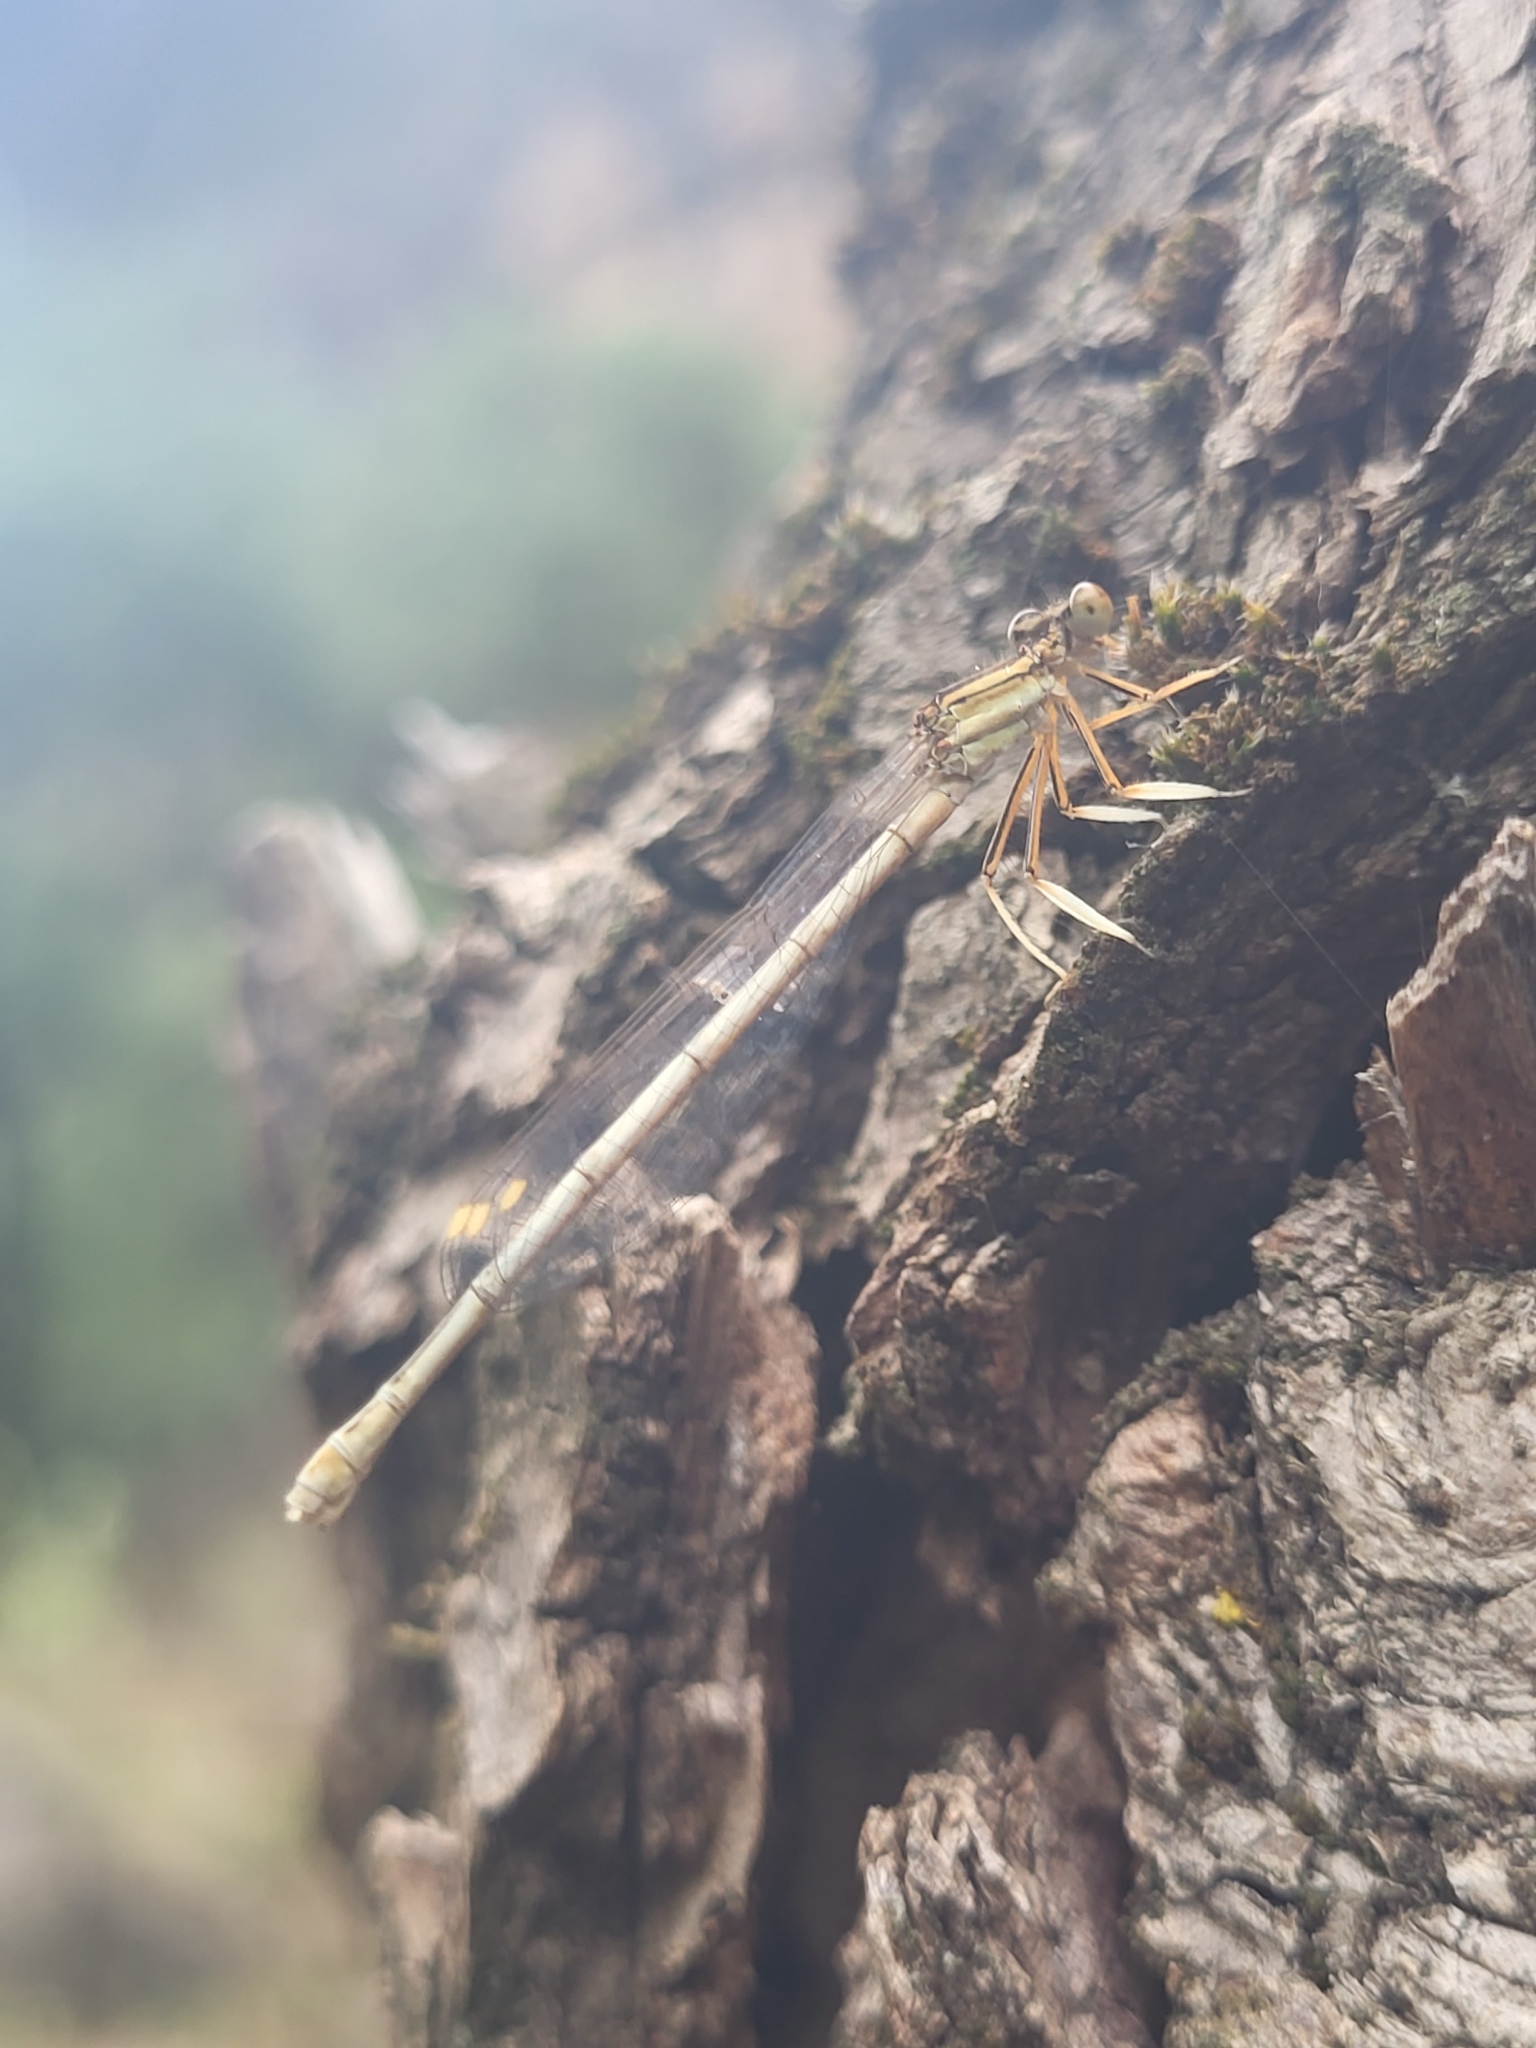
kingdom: Animalia
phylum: Arthropoda
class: Insecta
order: Odonata
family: Platycnemididae
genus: Platycnemis
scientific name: Platycnemis dealbata
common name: Ivory featherleg
